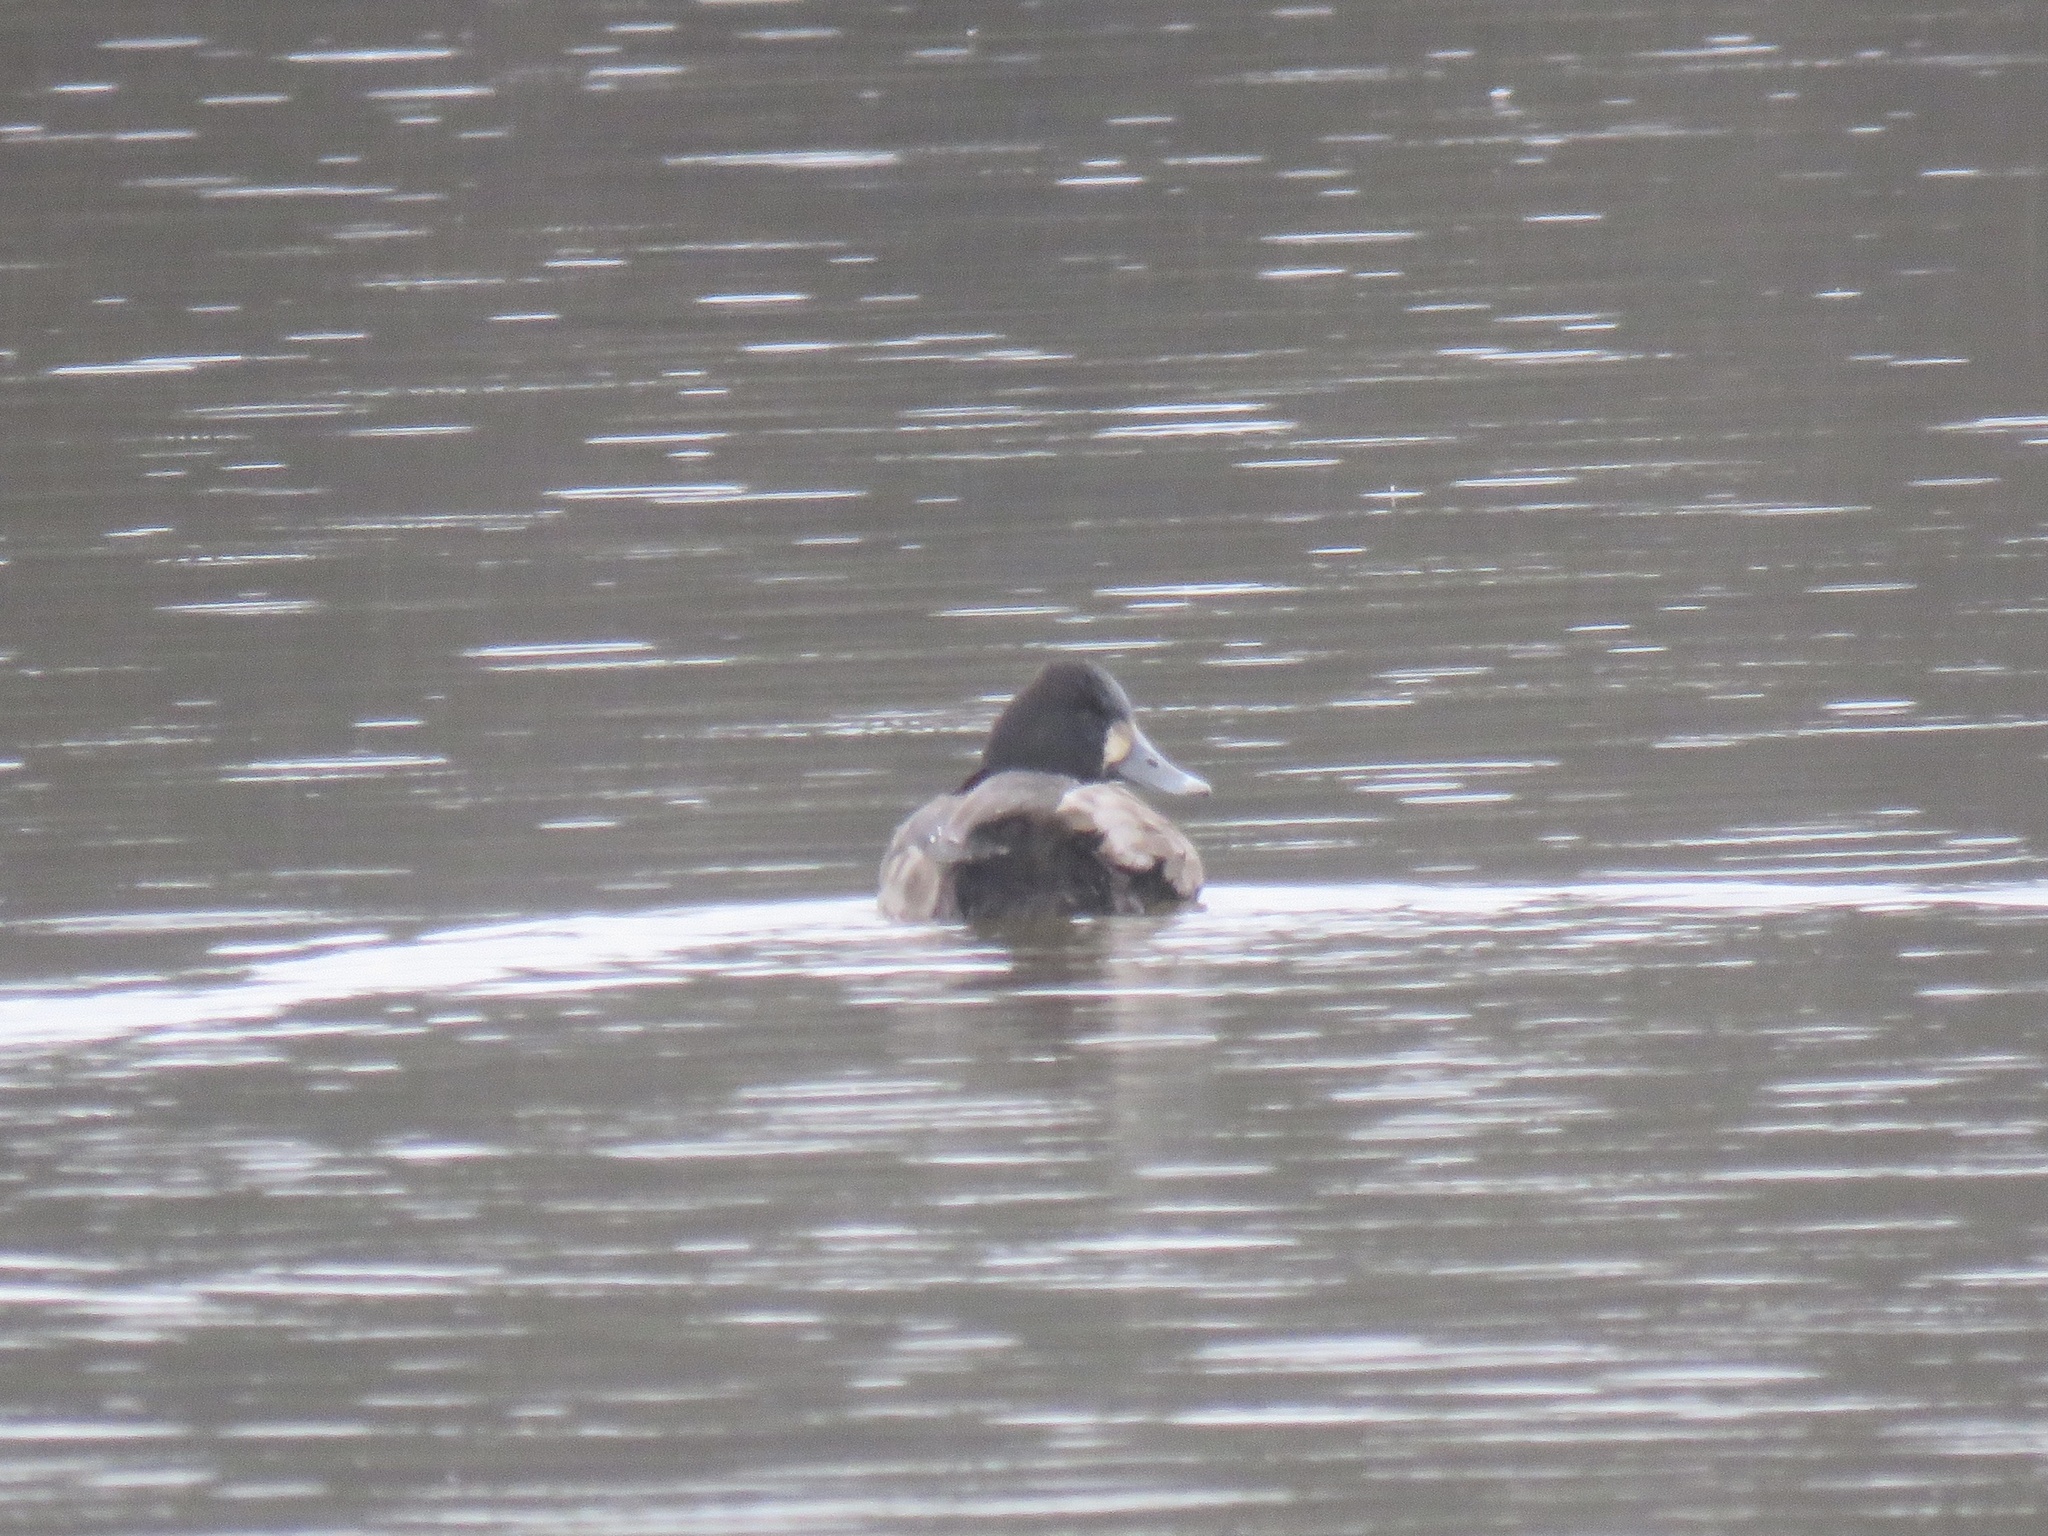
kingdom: Animalia
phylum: Chordata
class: Aves
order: Anseriformes
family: Anatidae
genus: Aythya
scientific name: Aythya affinis
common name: Lesser scaup
